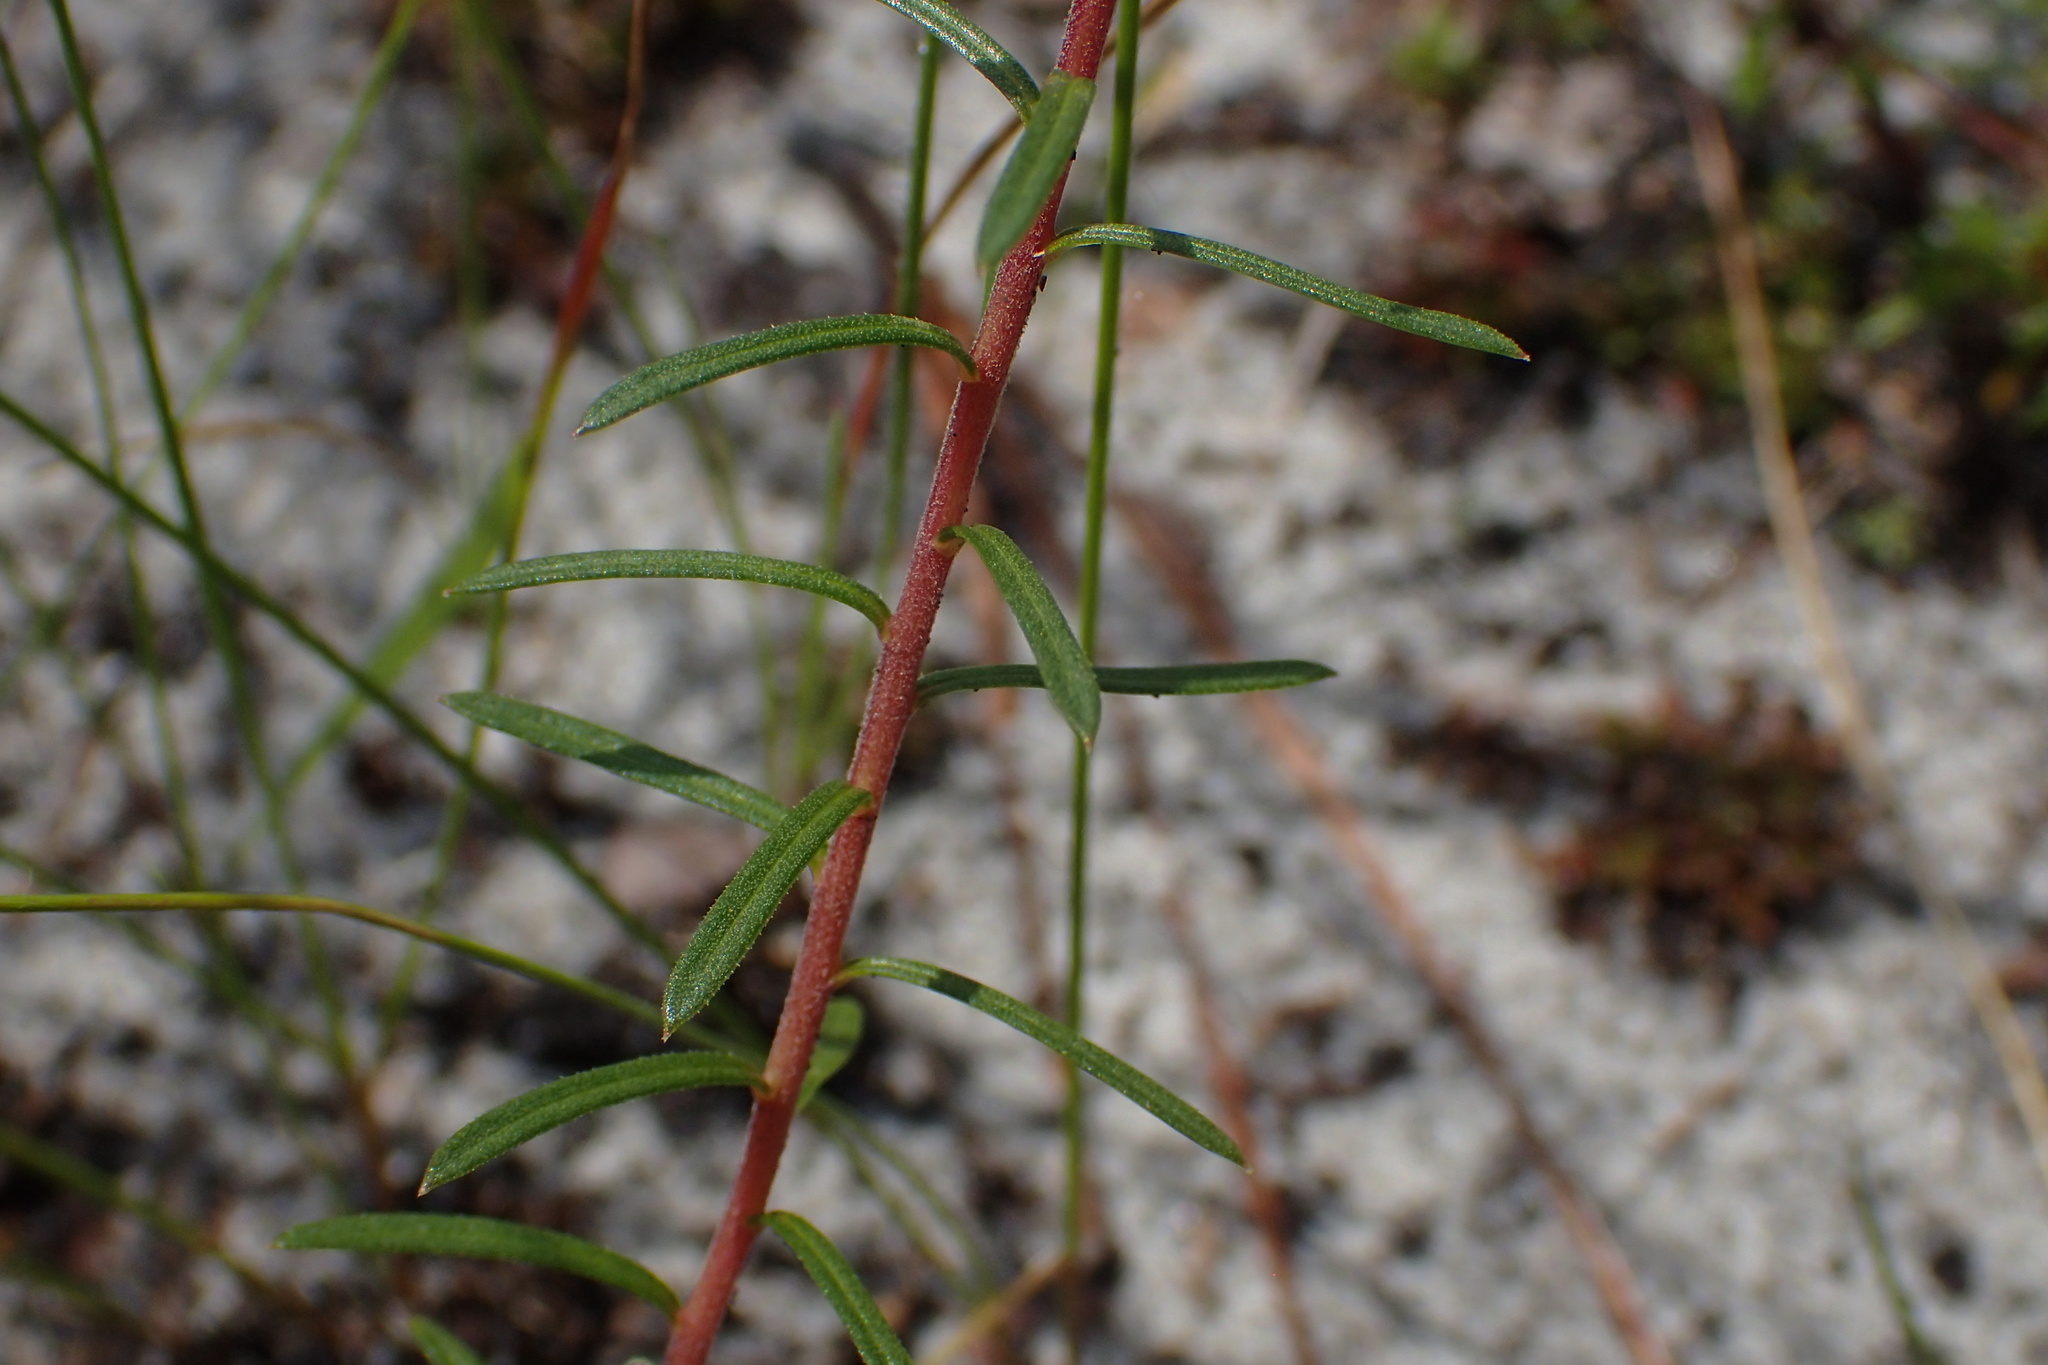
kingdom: Plantae
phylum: Tracheophyta
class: Magnoliopsida
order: Asterales
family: Asteraceae
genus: Ionactis
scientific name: Ionactis linariifolia
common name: Flax-leaf aster
